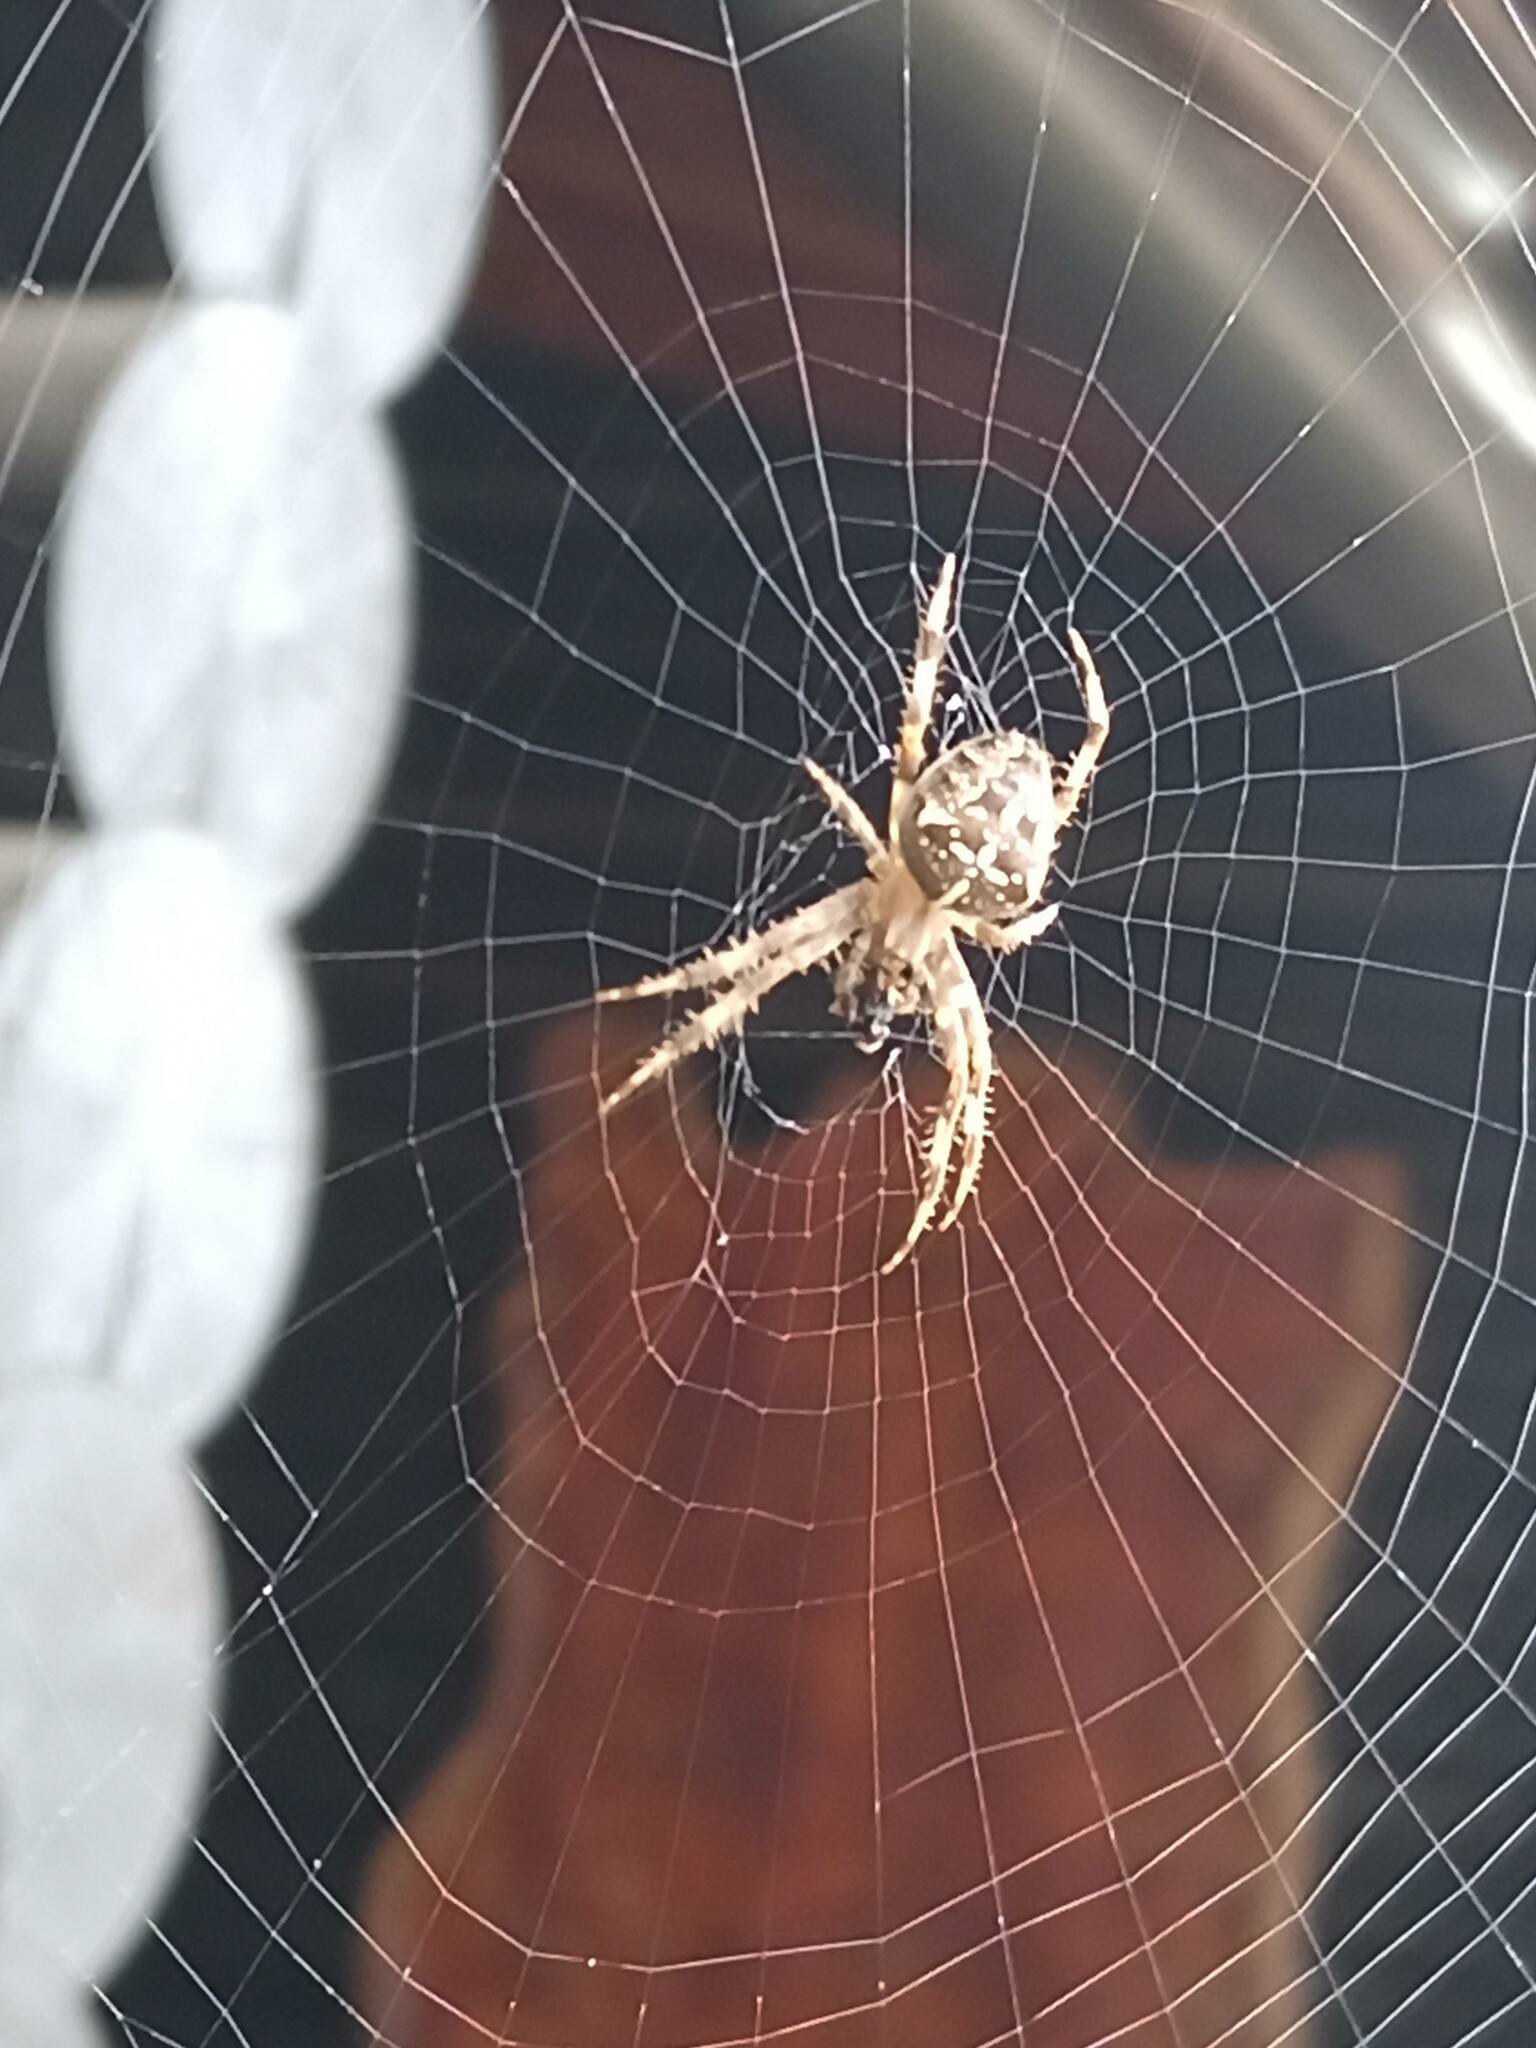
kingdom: Animalia
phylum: Arthropoda
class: Arachnida
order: Araneae
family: Araneidae
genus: Araneus
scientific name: Araneus diadematus
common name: Cross orbweaver
